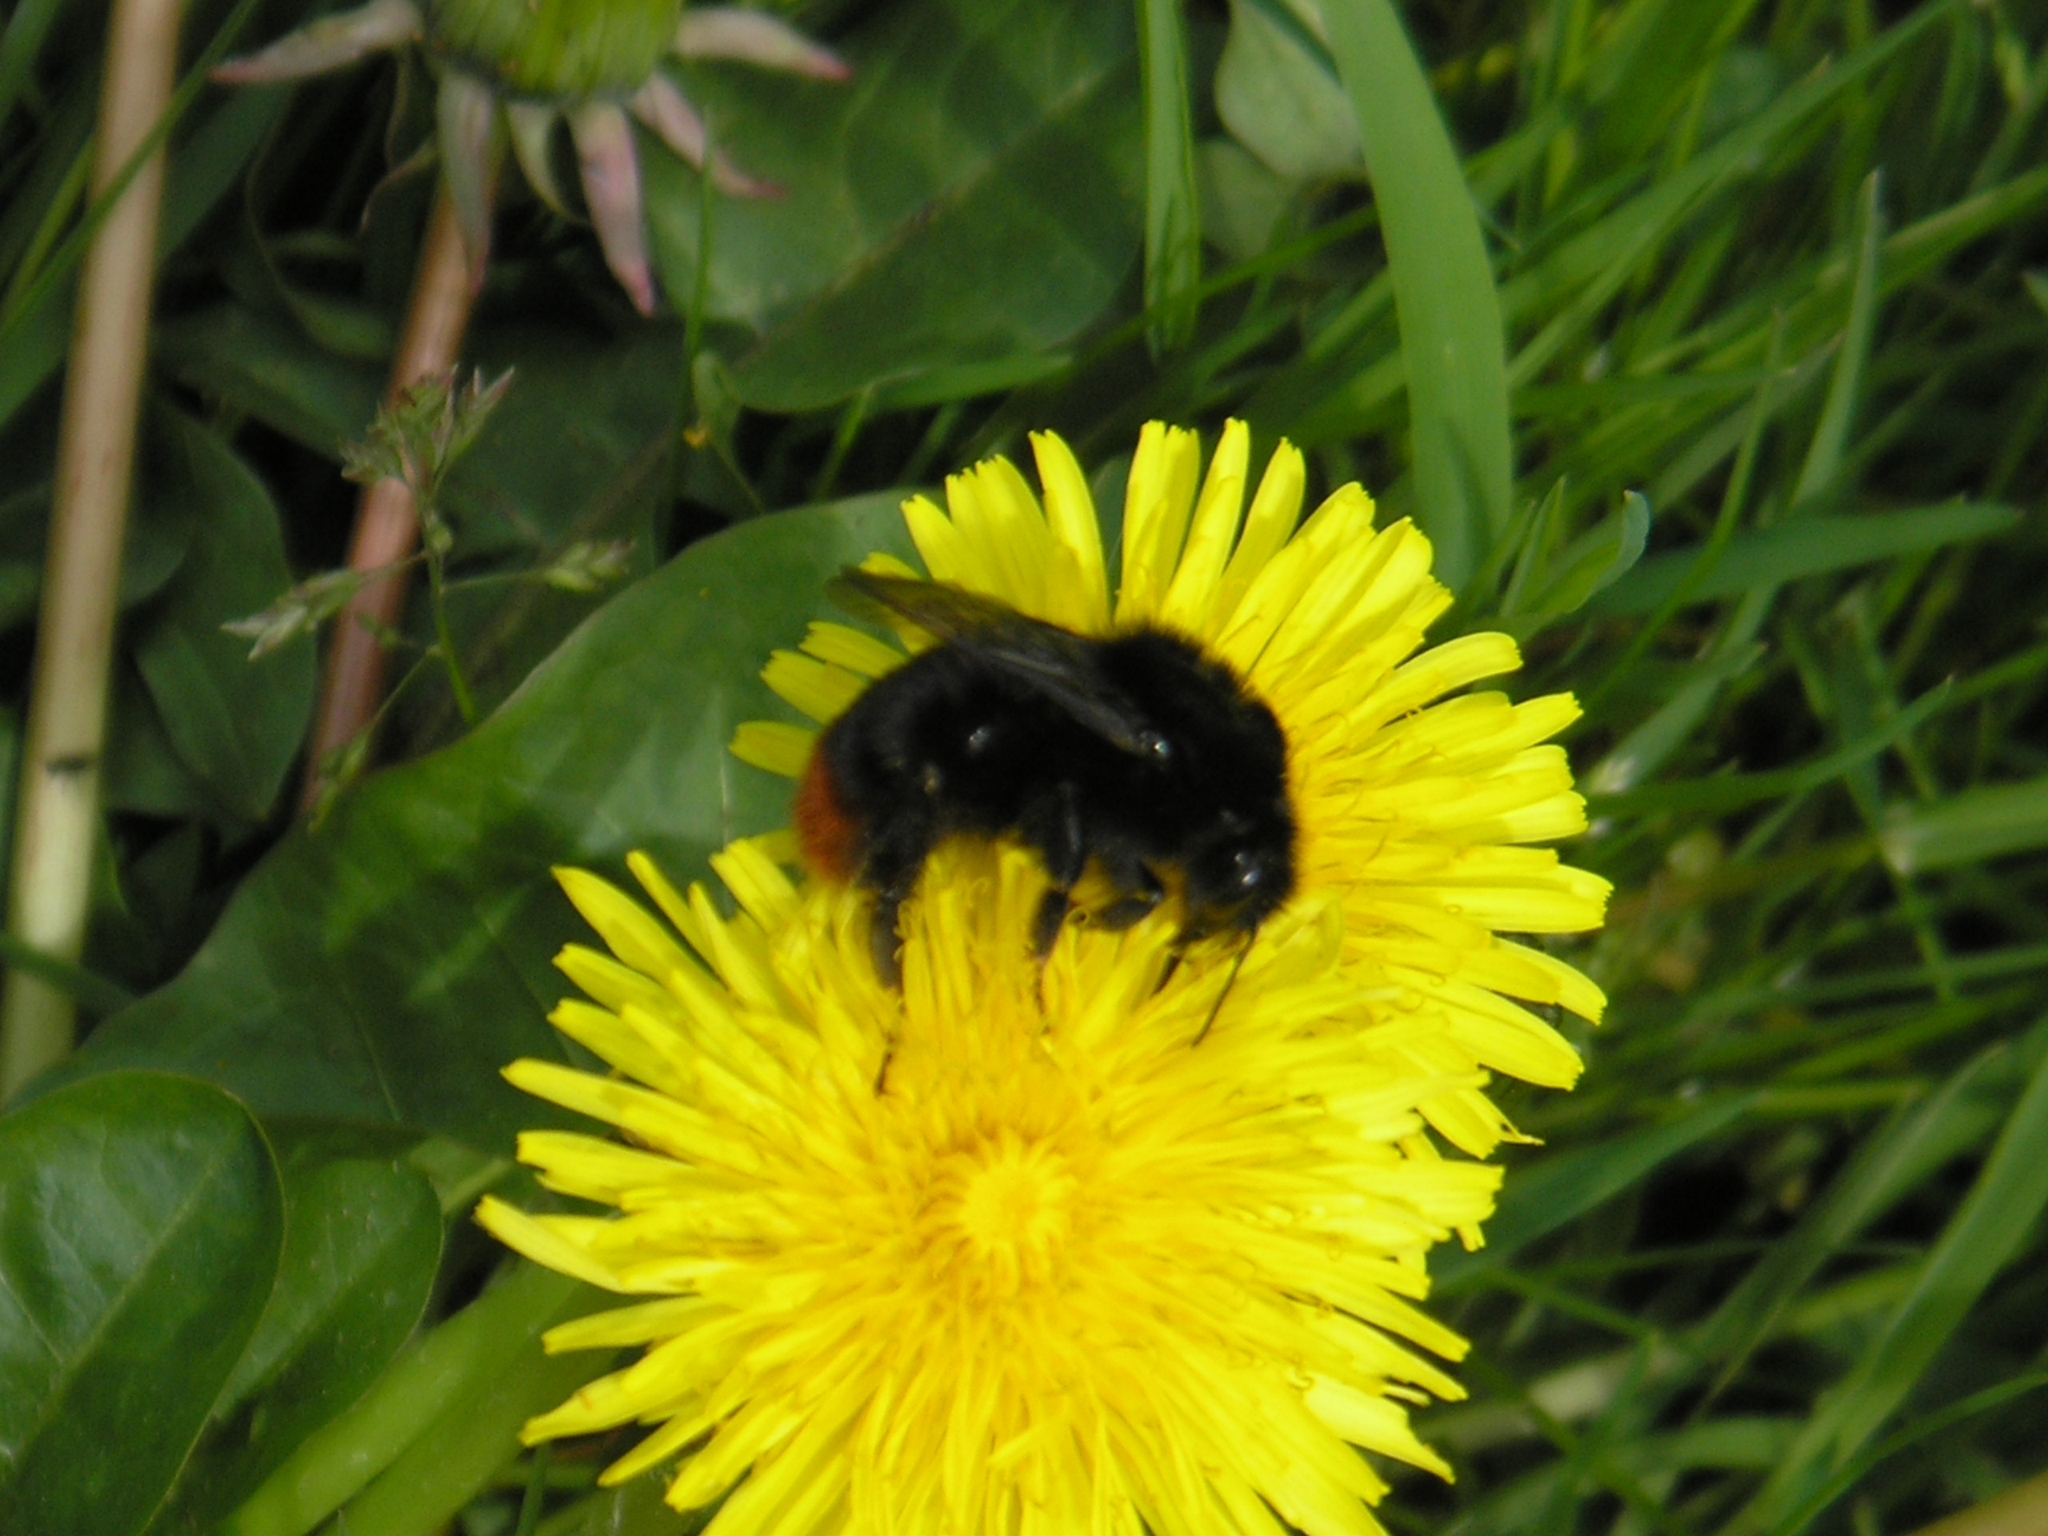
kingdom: Animalia
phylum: Arthropoda
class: Insecta
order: Hymenoptera
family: Apidae
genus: Bombus
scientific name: Bombus lapidarius
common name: Large red-tailed humble-bee
